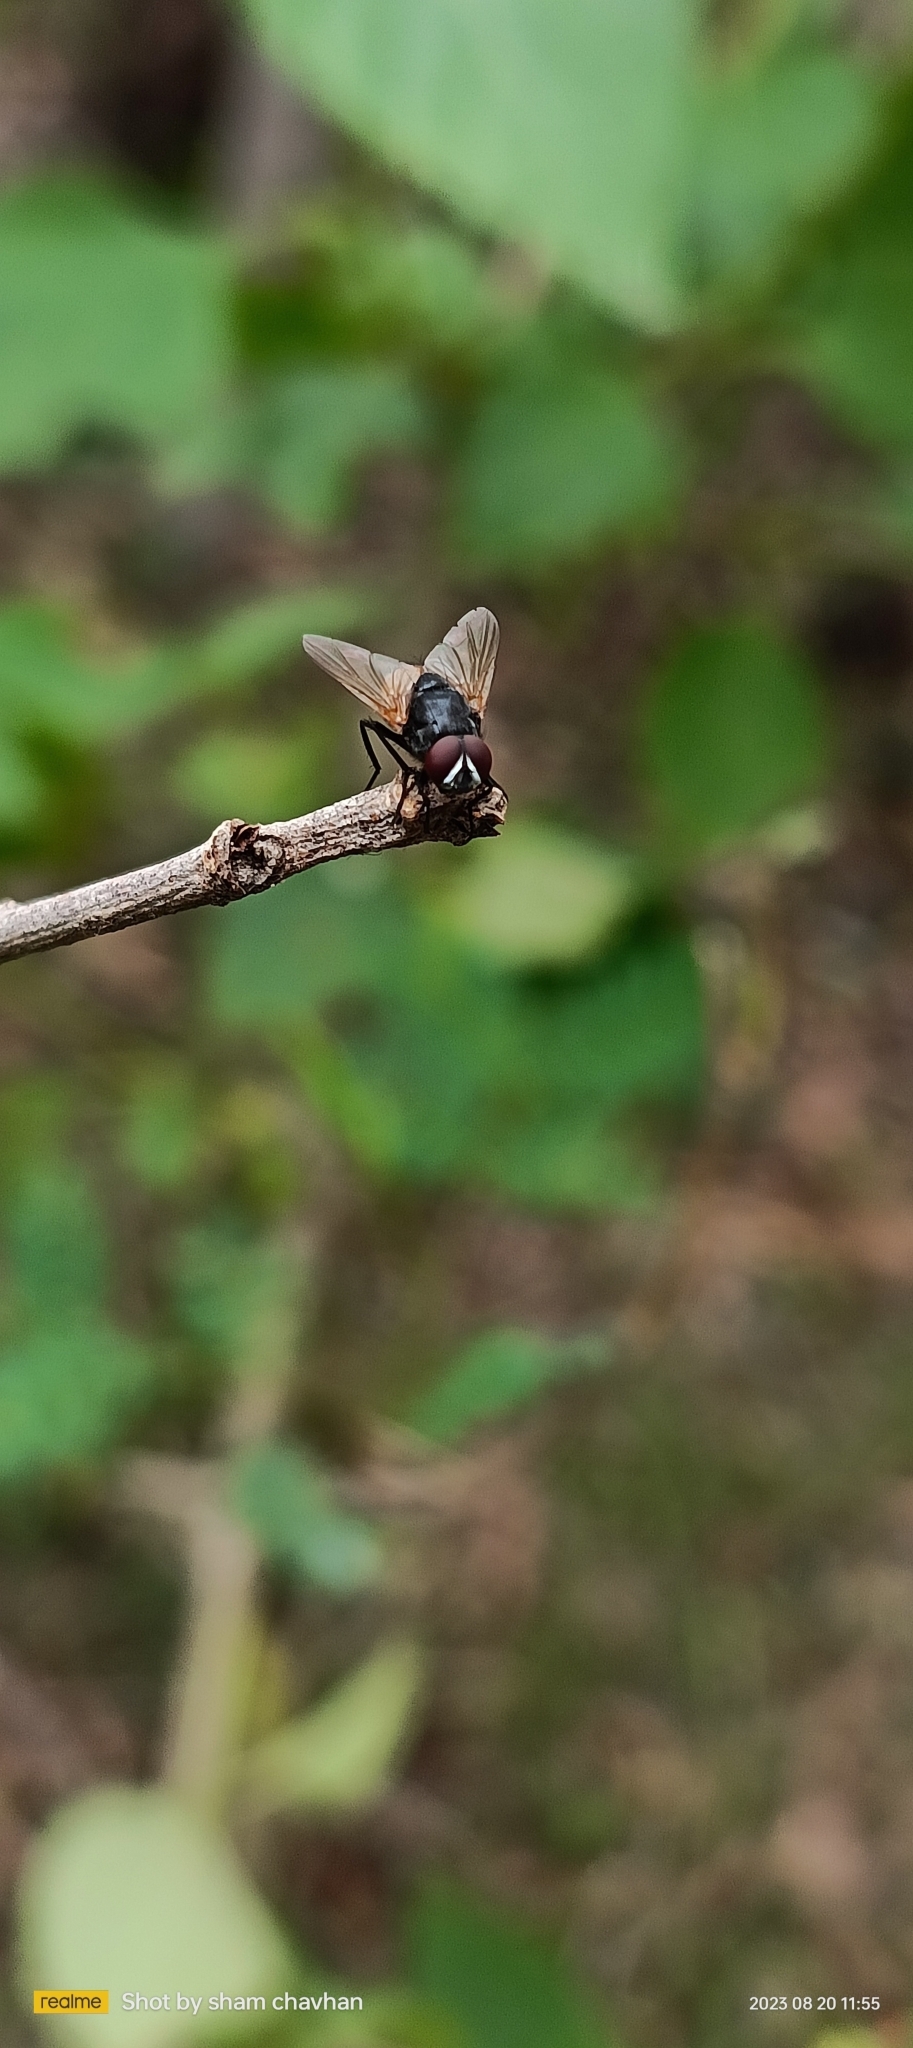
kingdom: Animalia
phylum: Arthropoda
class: Insecta
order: Diptera
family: Muscidae
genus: Musca
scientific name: Musca domestica
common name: House fly
